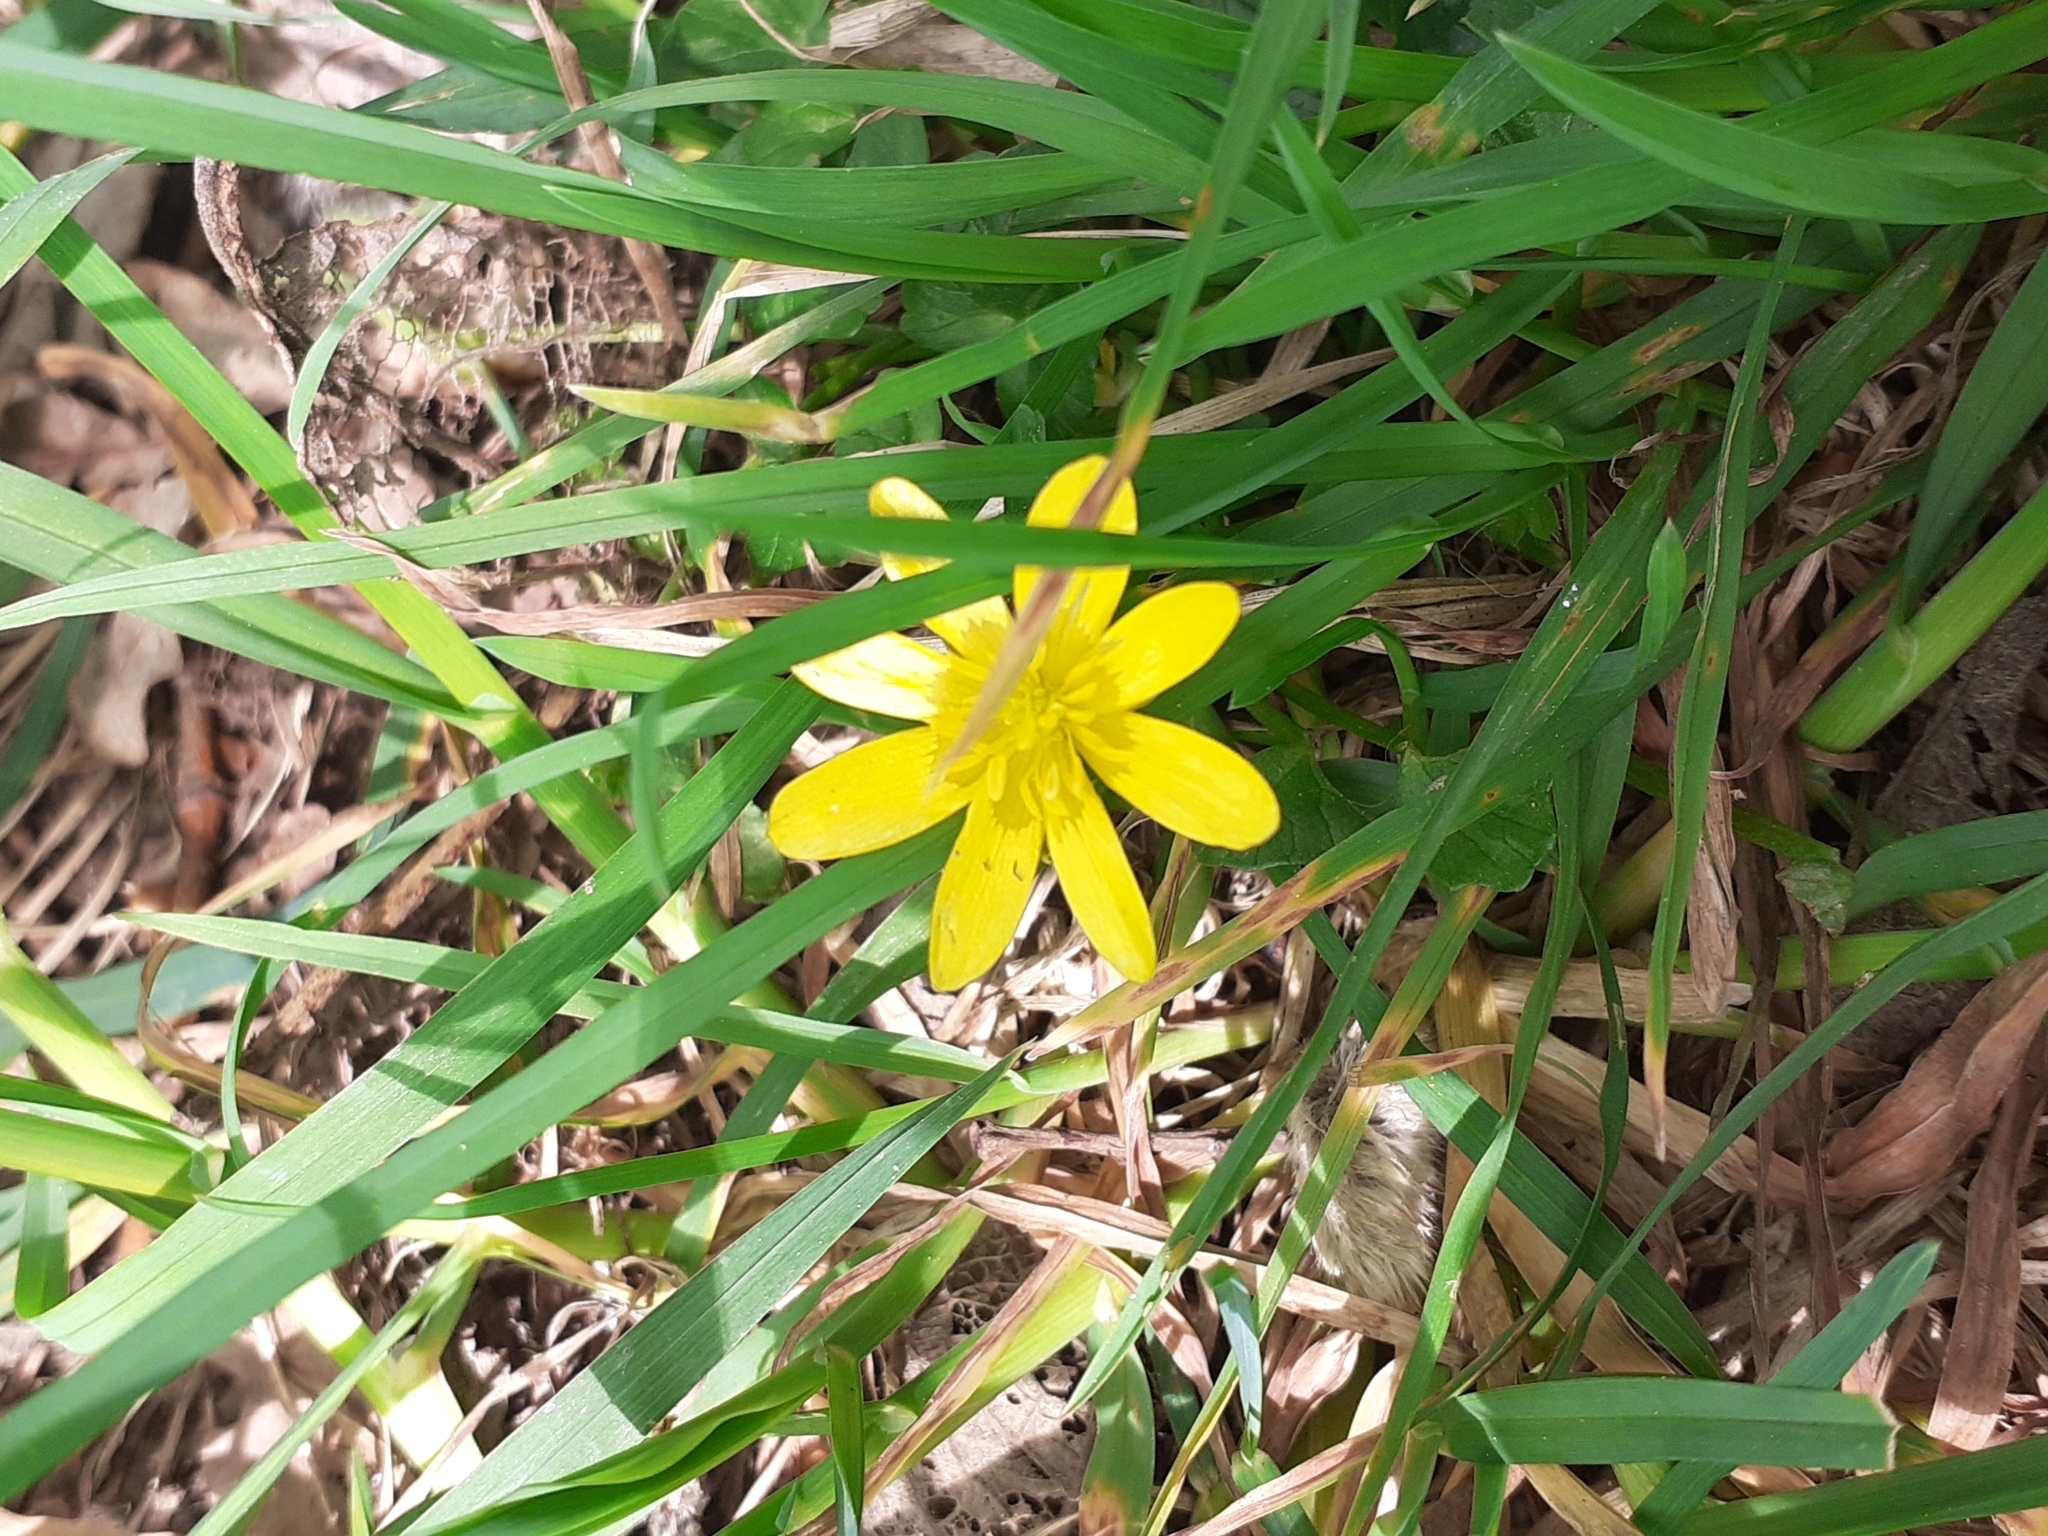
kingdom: Plantae
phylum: Tracheophyta
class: Magnoliopsida
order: Ranunculales
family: Ranunculaceae
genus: Ficaria
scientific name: Ficaria verna
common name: Lesser celandine
